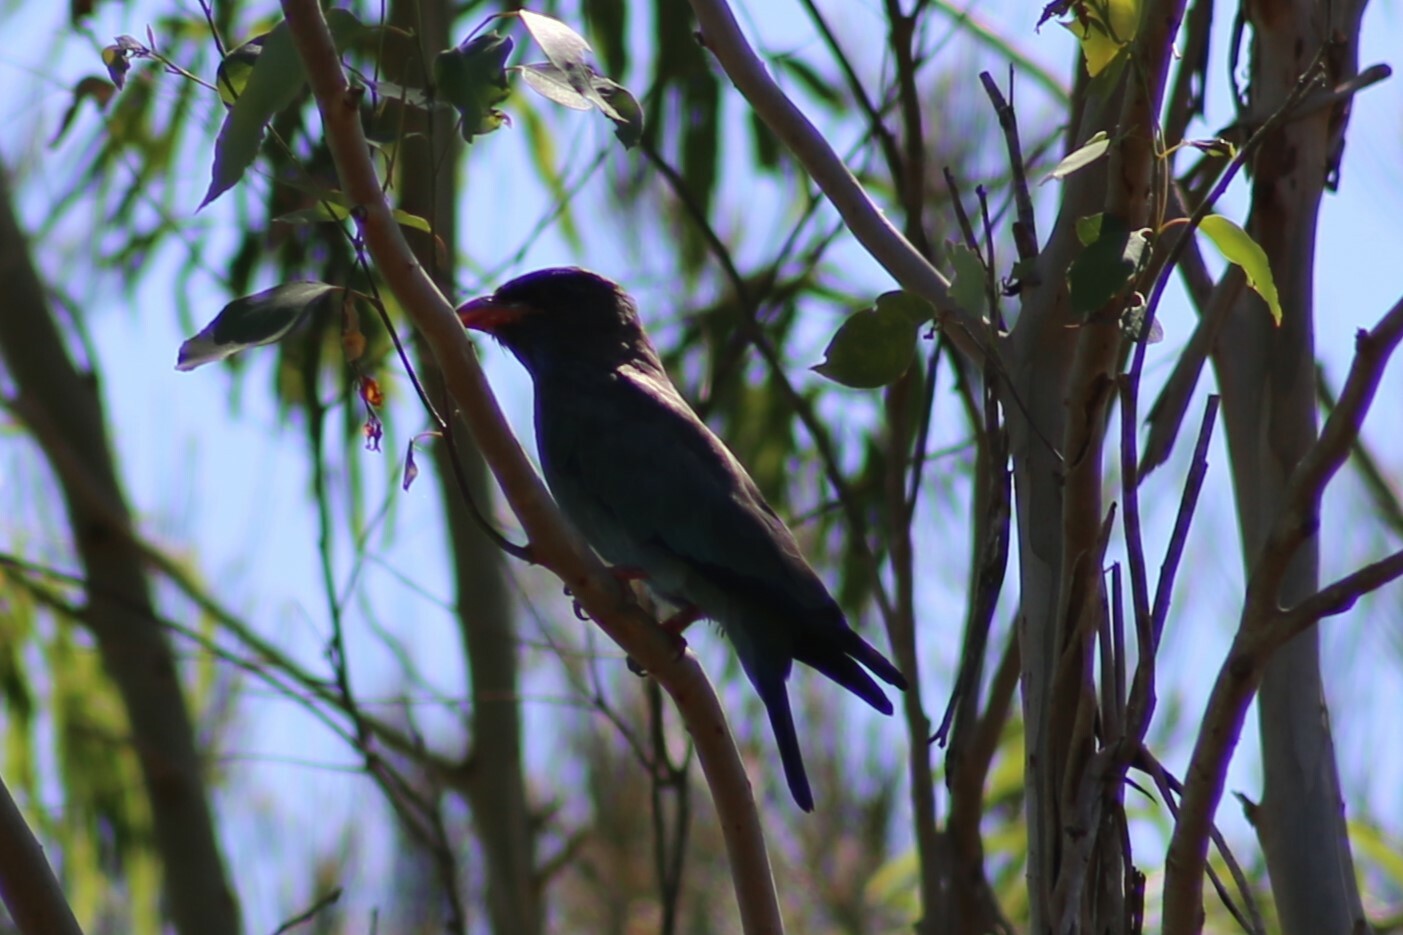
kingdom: Animalia
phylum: Chordata
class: Aves
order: Coraciiformes
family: Coraciidae
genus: Eurystomus
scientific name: Eurystomus orientalis
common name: Oriental dollarbird
